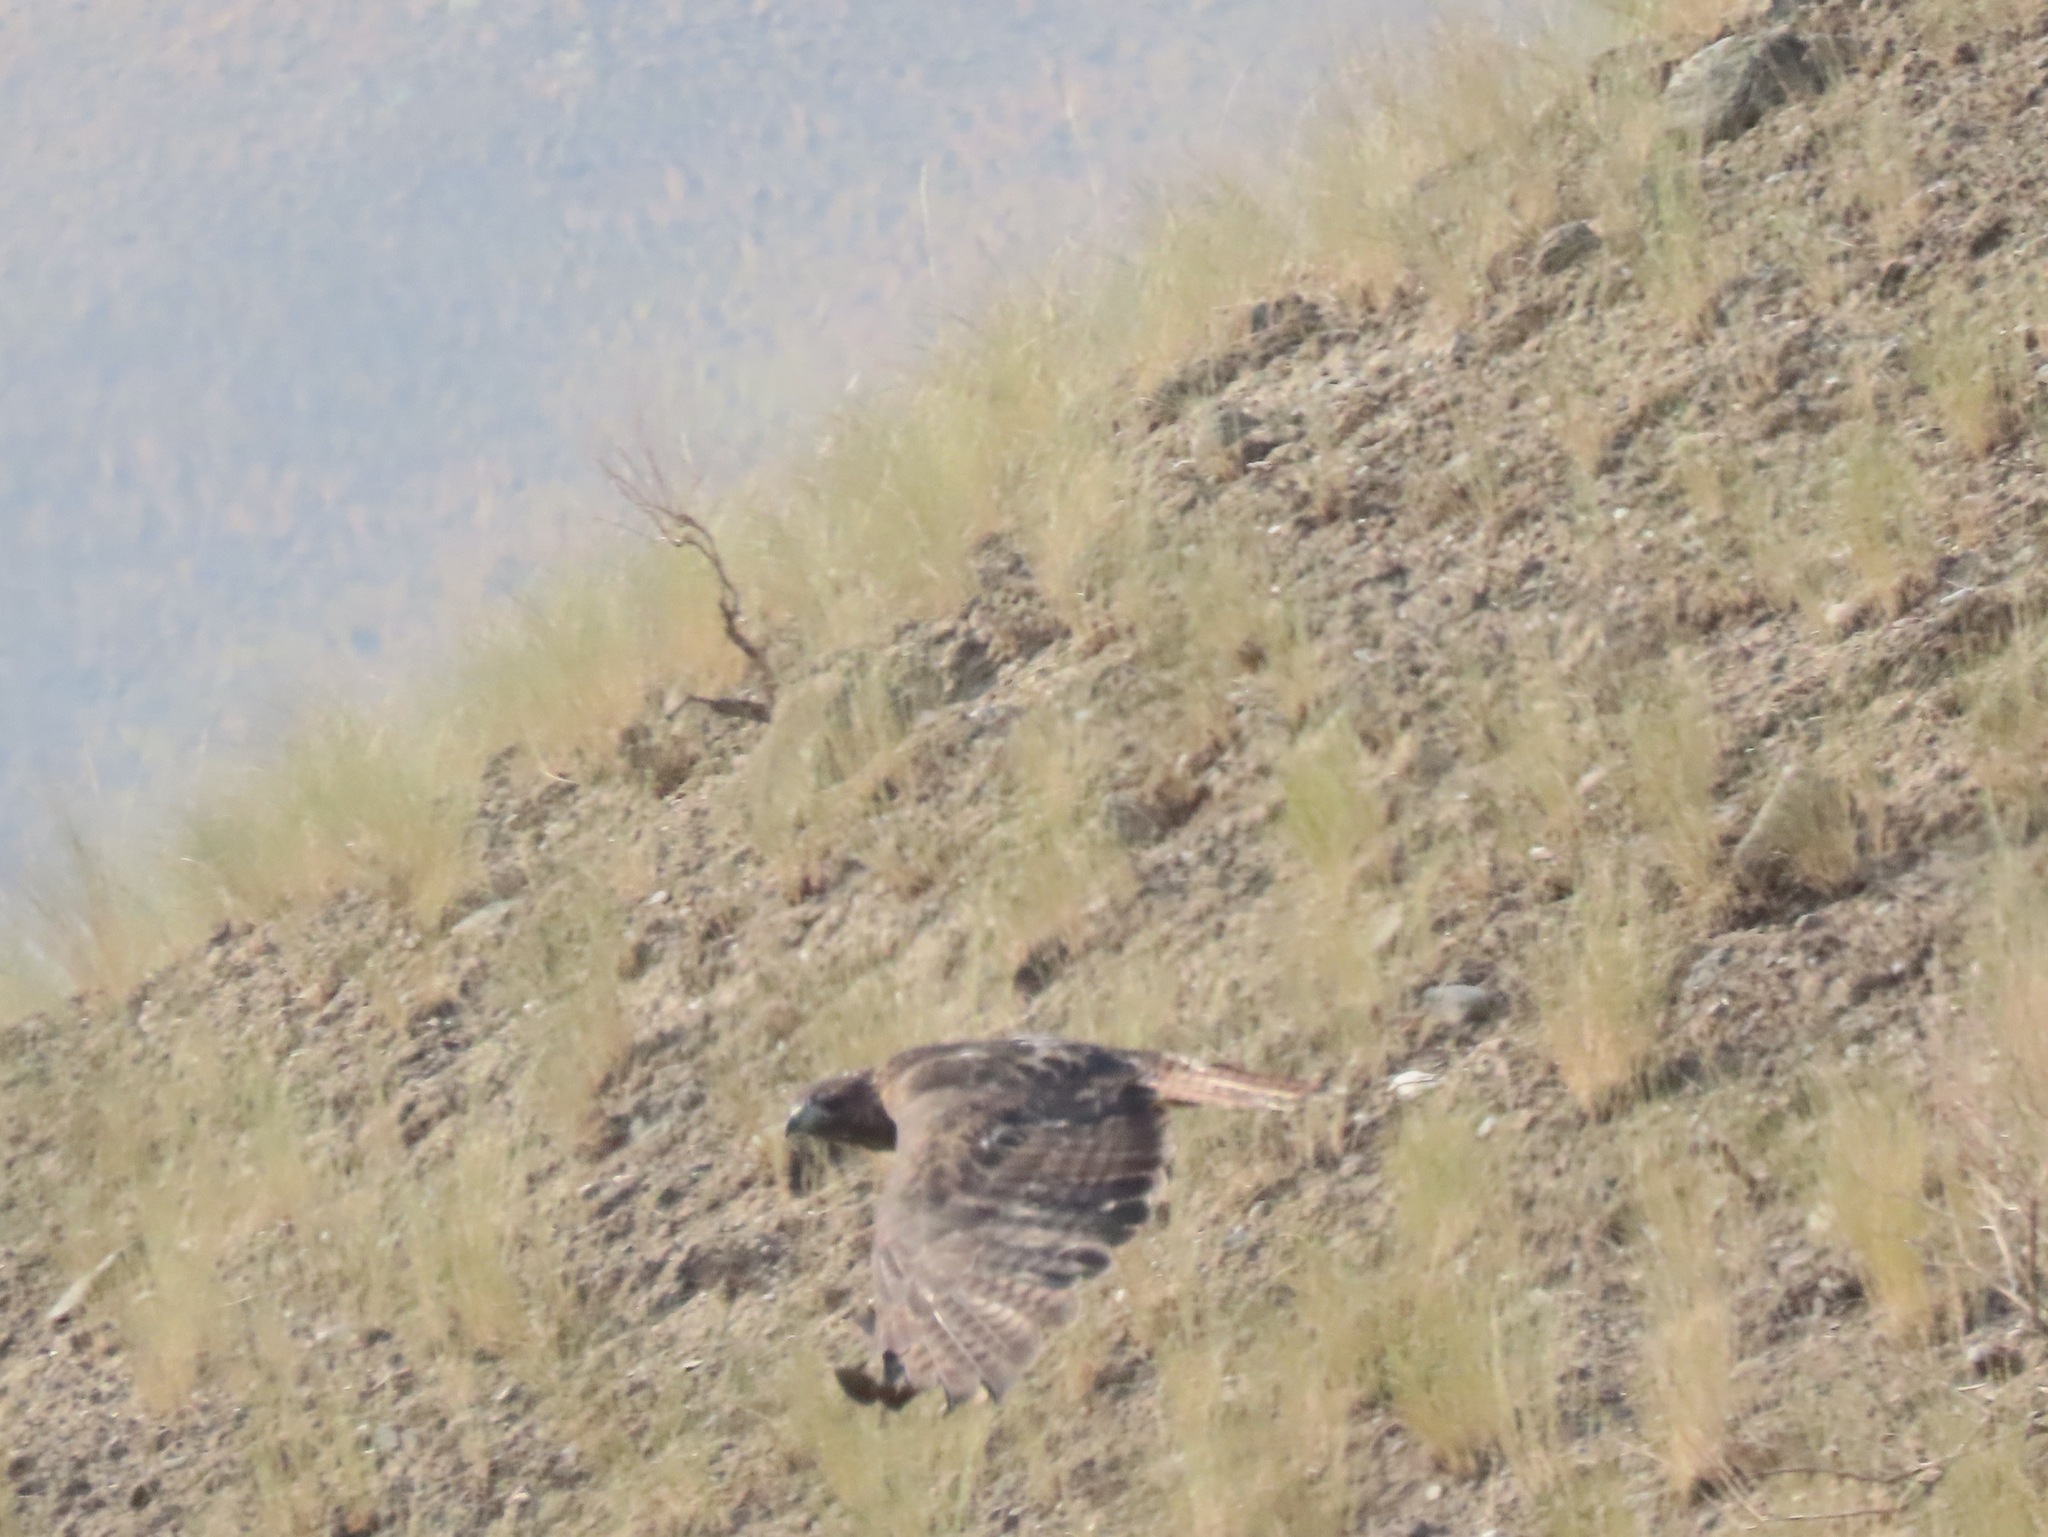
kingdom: Animalia
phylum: Chordata
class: Aves
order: Accipitriformes
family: Accipitridae
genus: Buteo
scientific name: Buteo jamaicensis
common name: Red-tailed hawk
